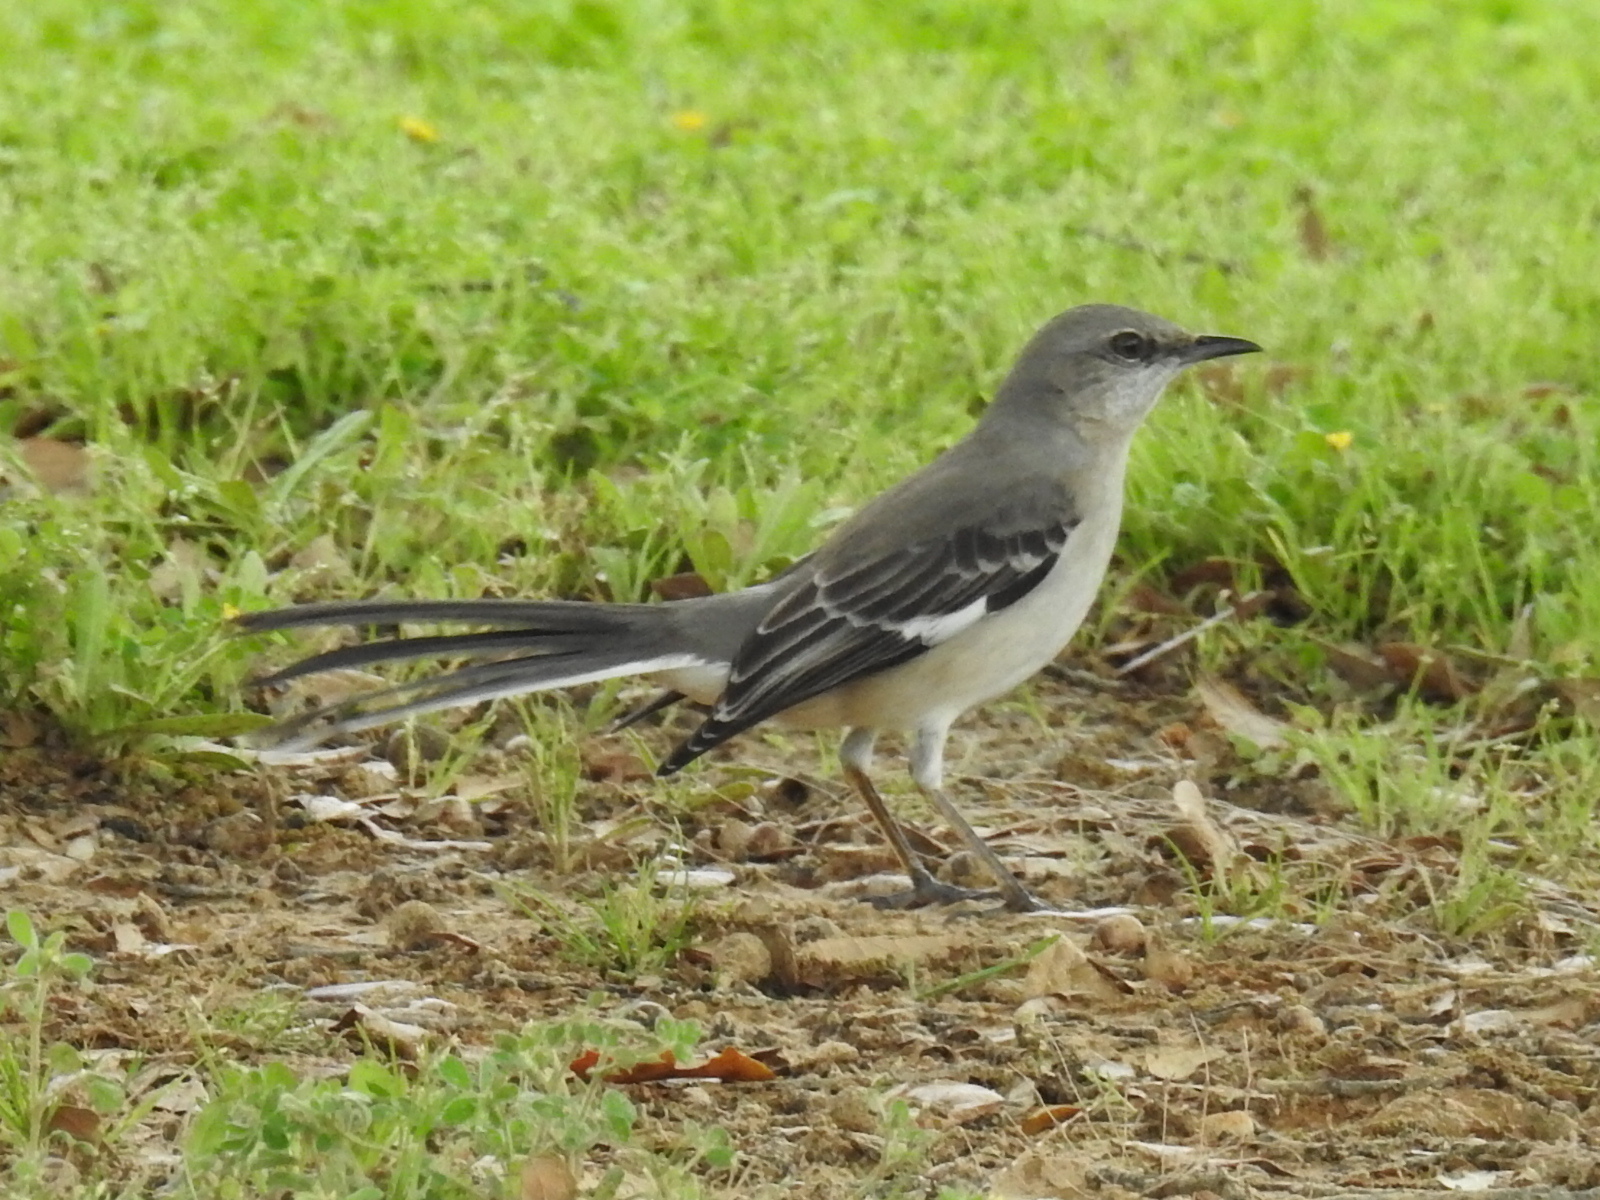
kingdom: Animalia
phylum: Chordata
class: Aves
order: Passeriformes
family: Mimidae
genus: Mimus
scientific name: Mimus polyglottos
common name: Northern mockingbird
